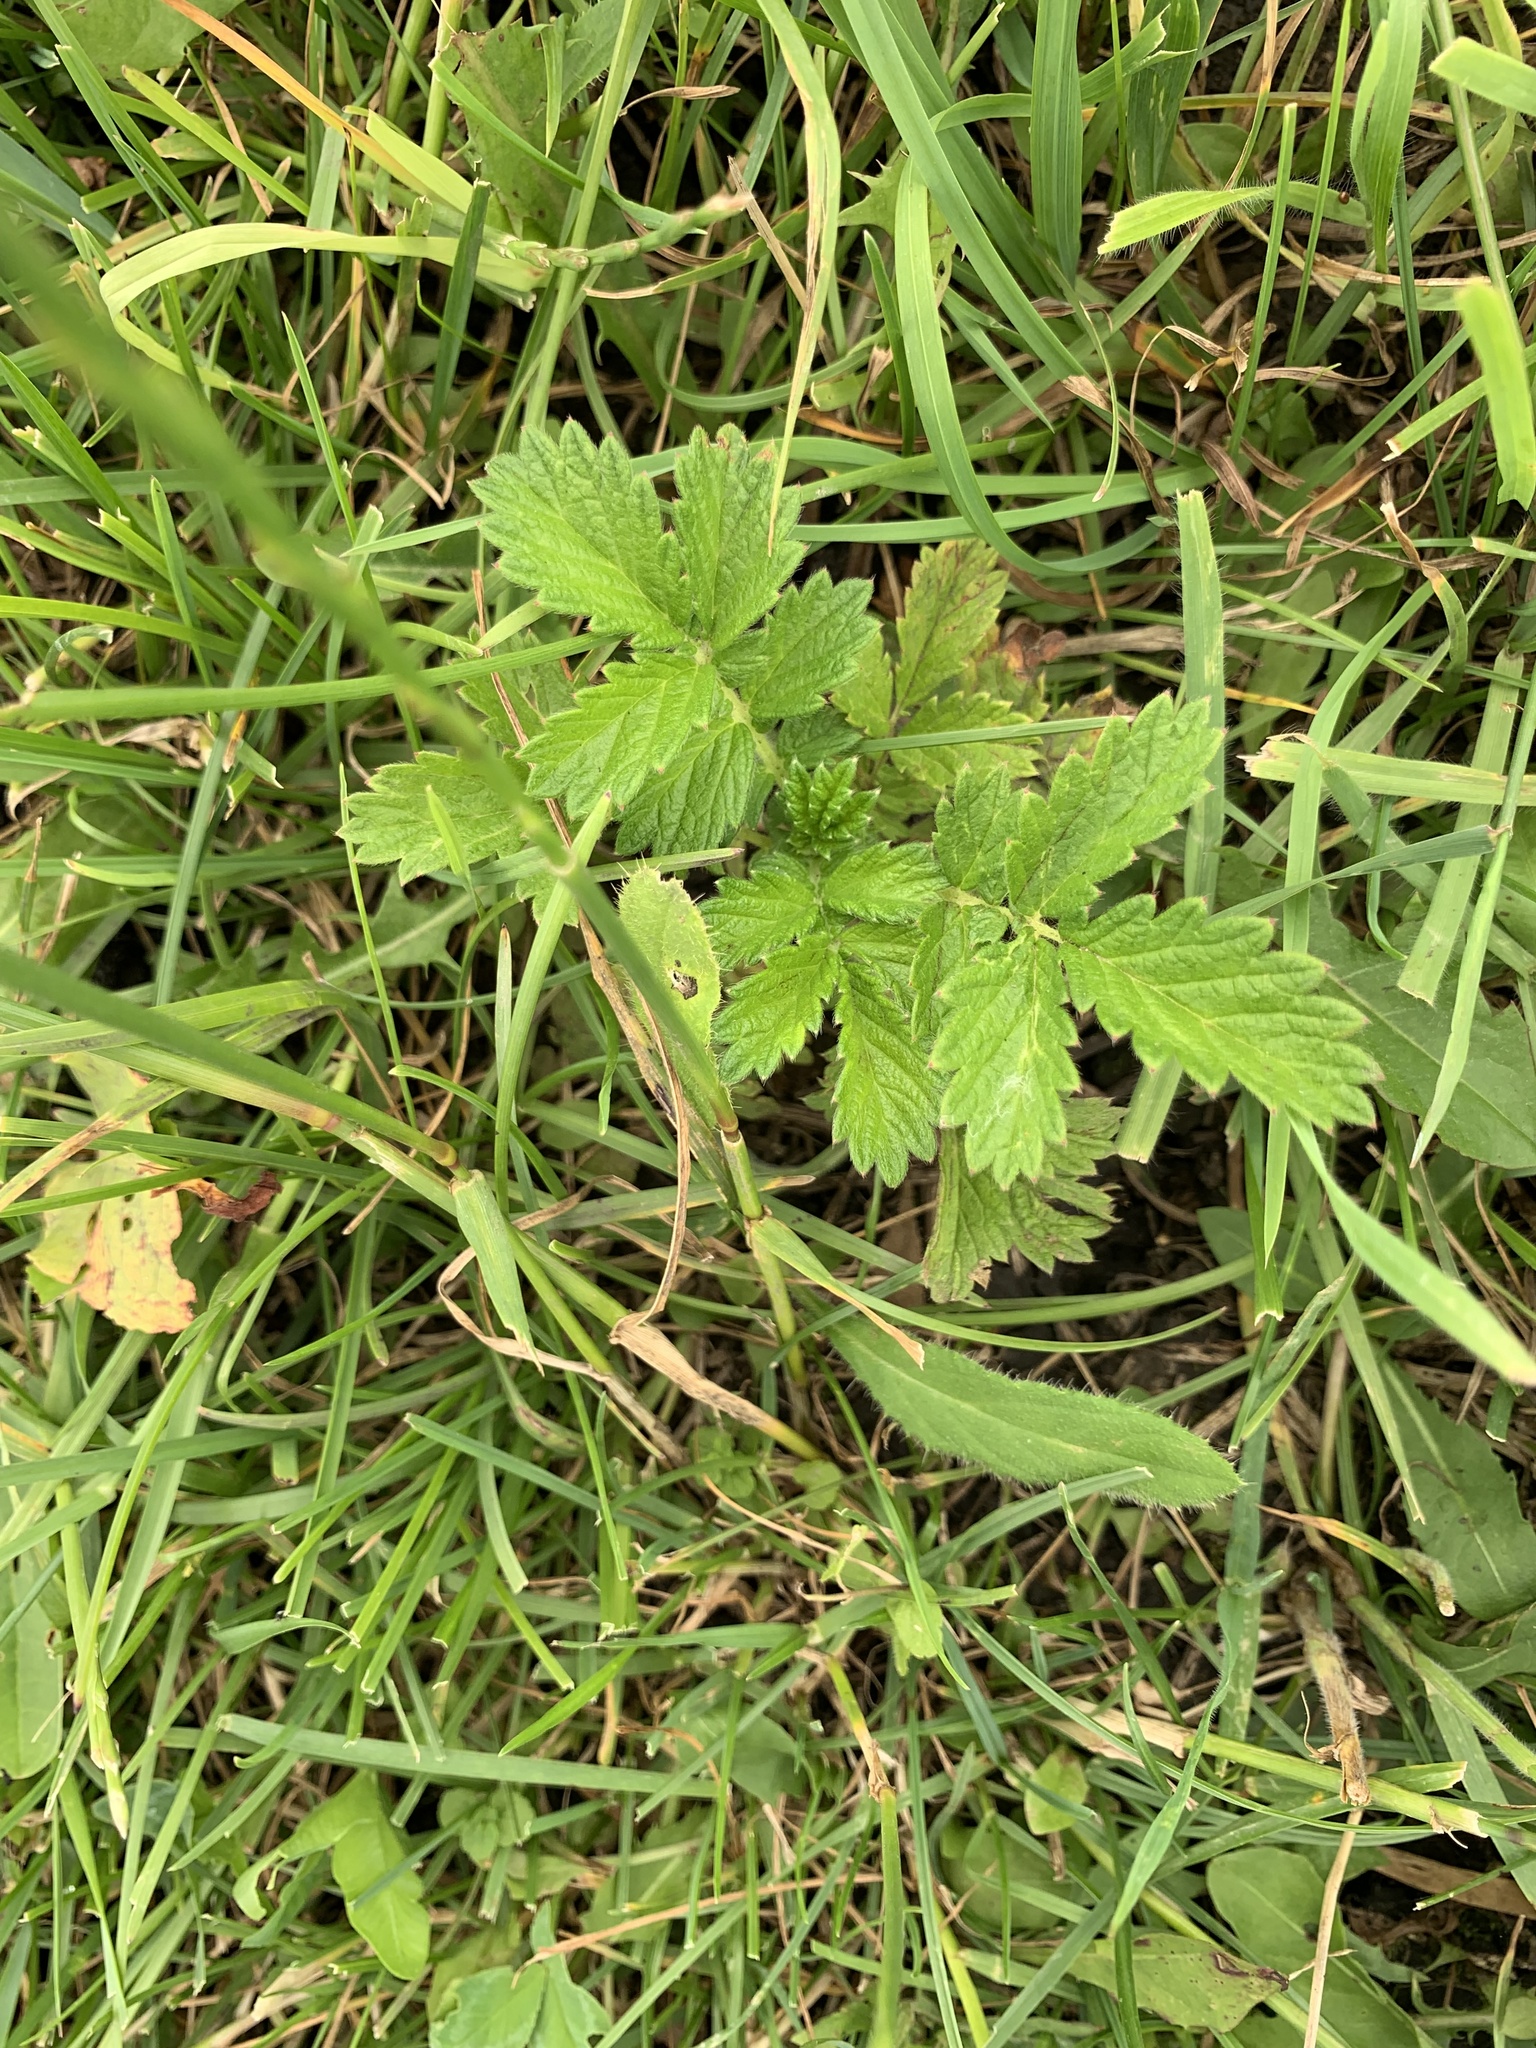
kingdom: Plantae
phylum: Tracheophyta
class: Magnoliopsida
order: Rosales
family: Rosaceae
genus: Agrimonia
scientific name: Agrimonia eupatoria
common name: Agrimony
